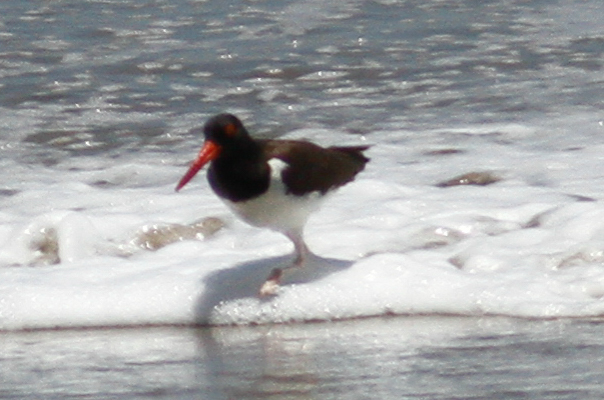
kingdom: Animalia
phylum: Chordata
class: Aves
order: Charadriiformes
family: Haematopodidae
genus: Haematopus
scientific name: Haematopus palliatus
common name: American oystercatcher
